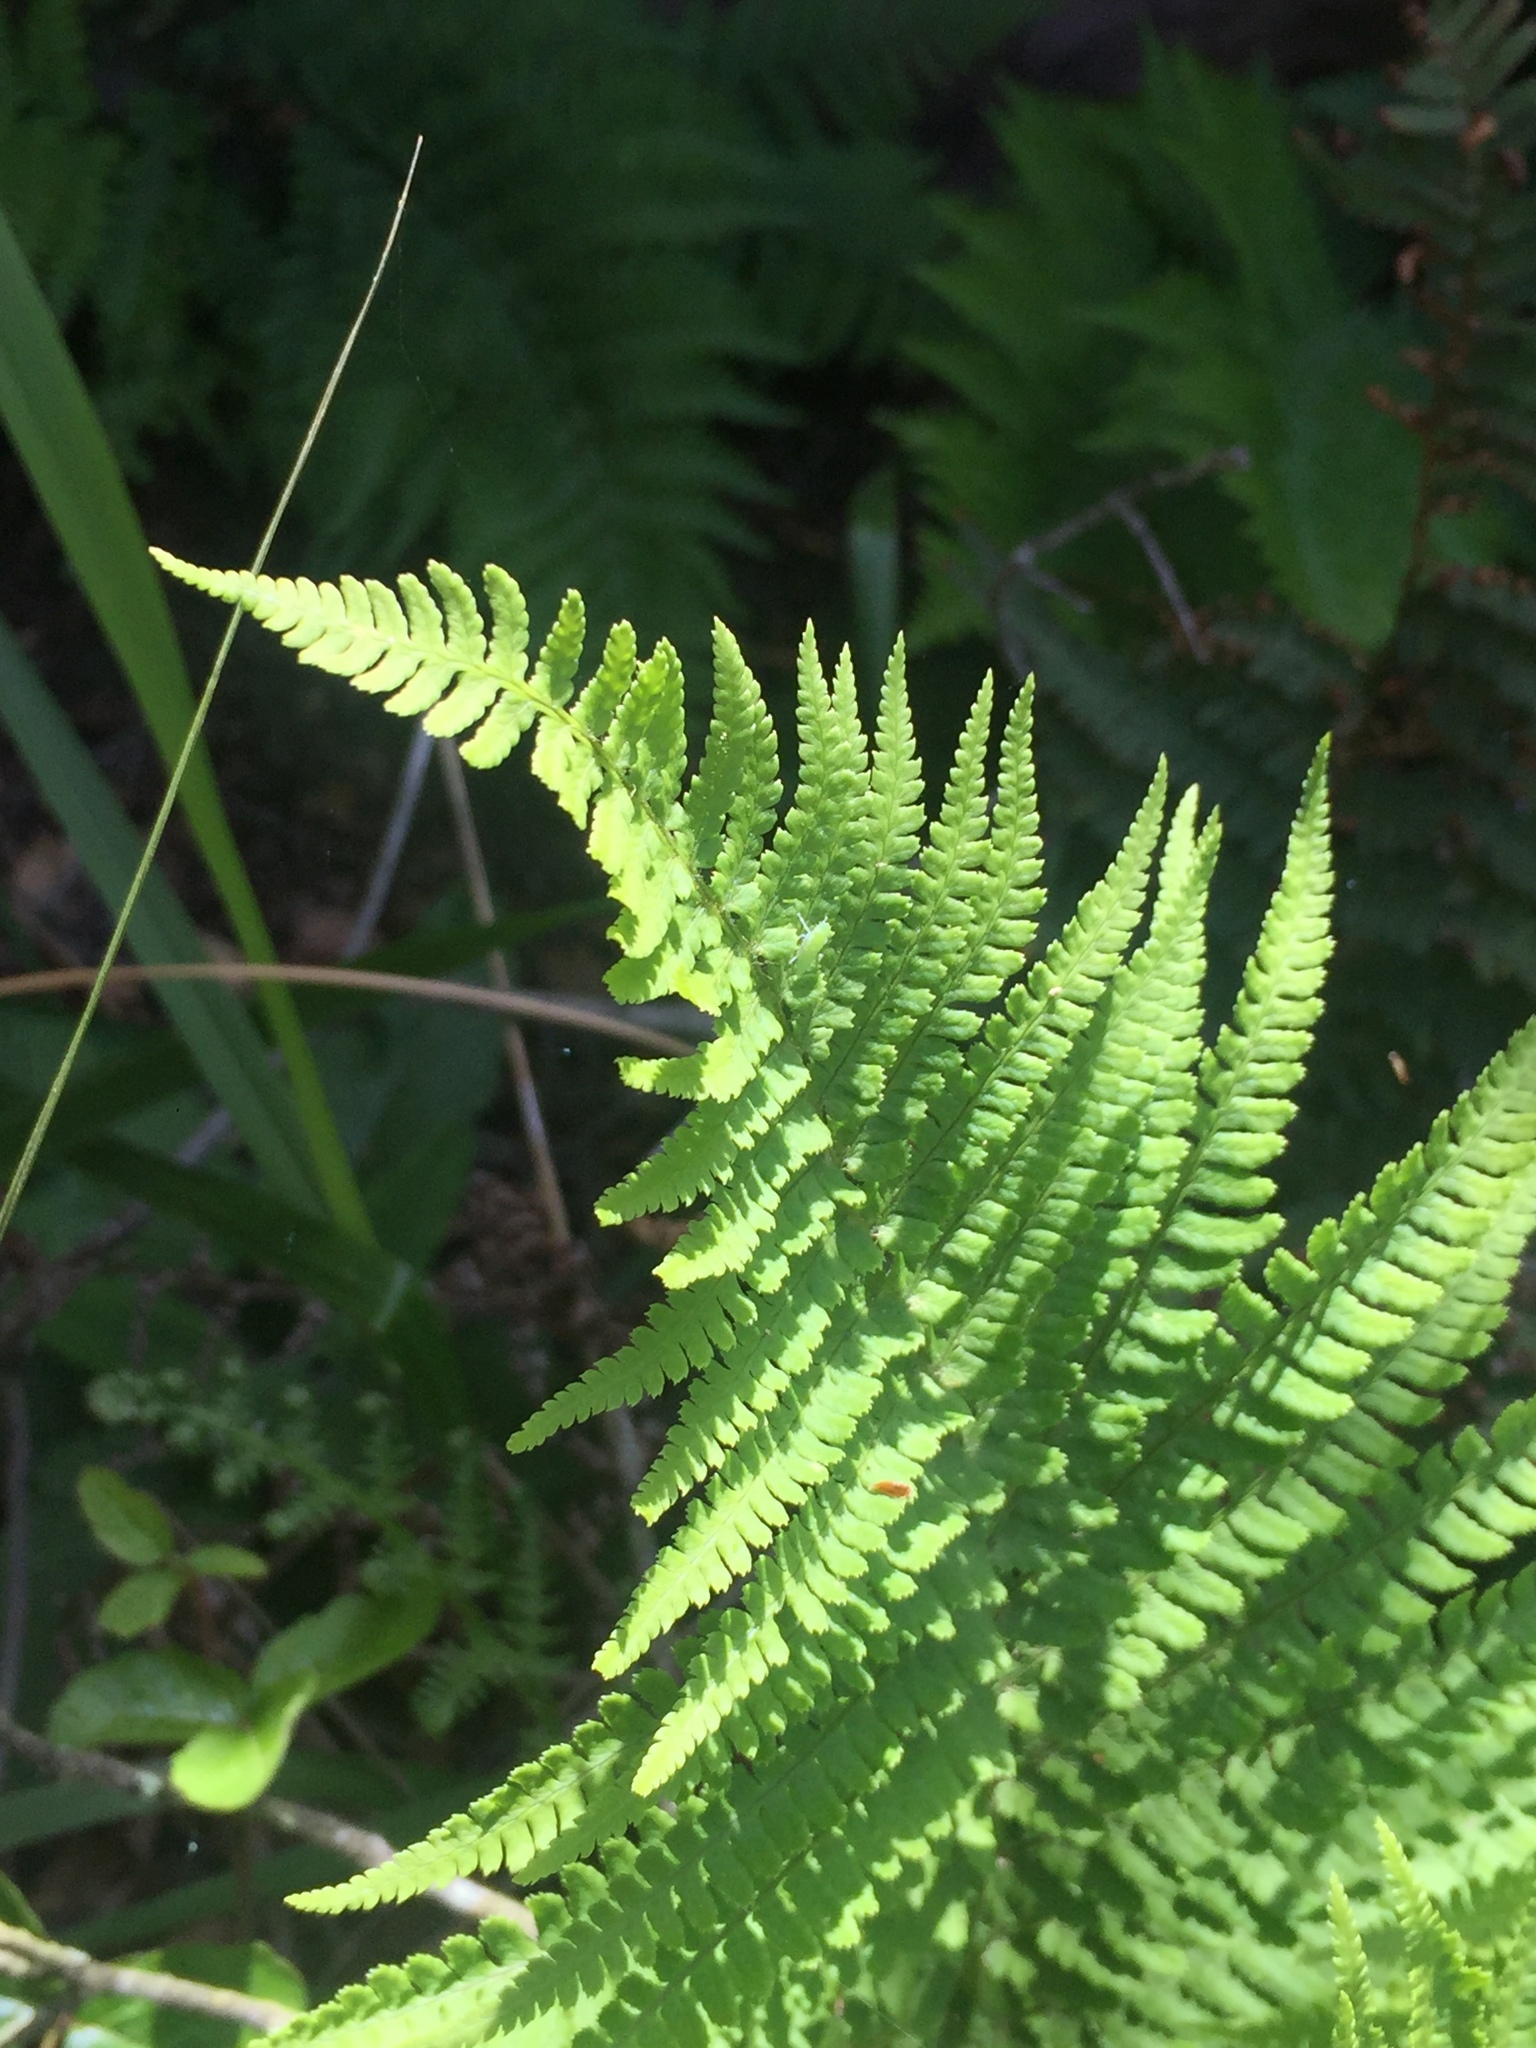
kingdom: Plantae
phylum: Tracheophyta
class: Polypodiopsida
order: Polypodiales
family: Dryopteridaceae
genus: Dryopteris
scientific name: Dryopteris arguta
